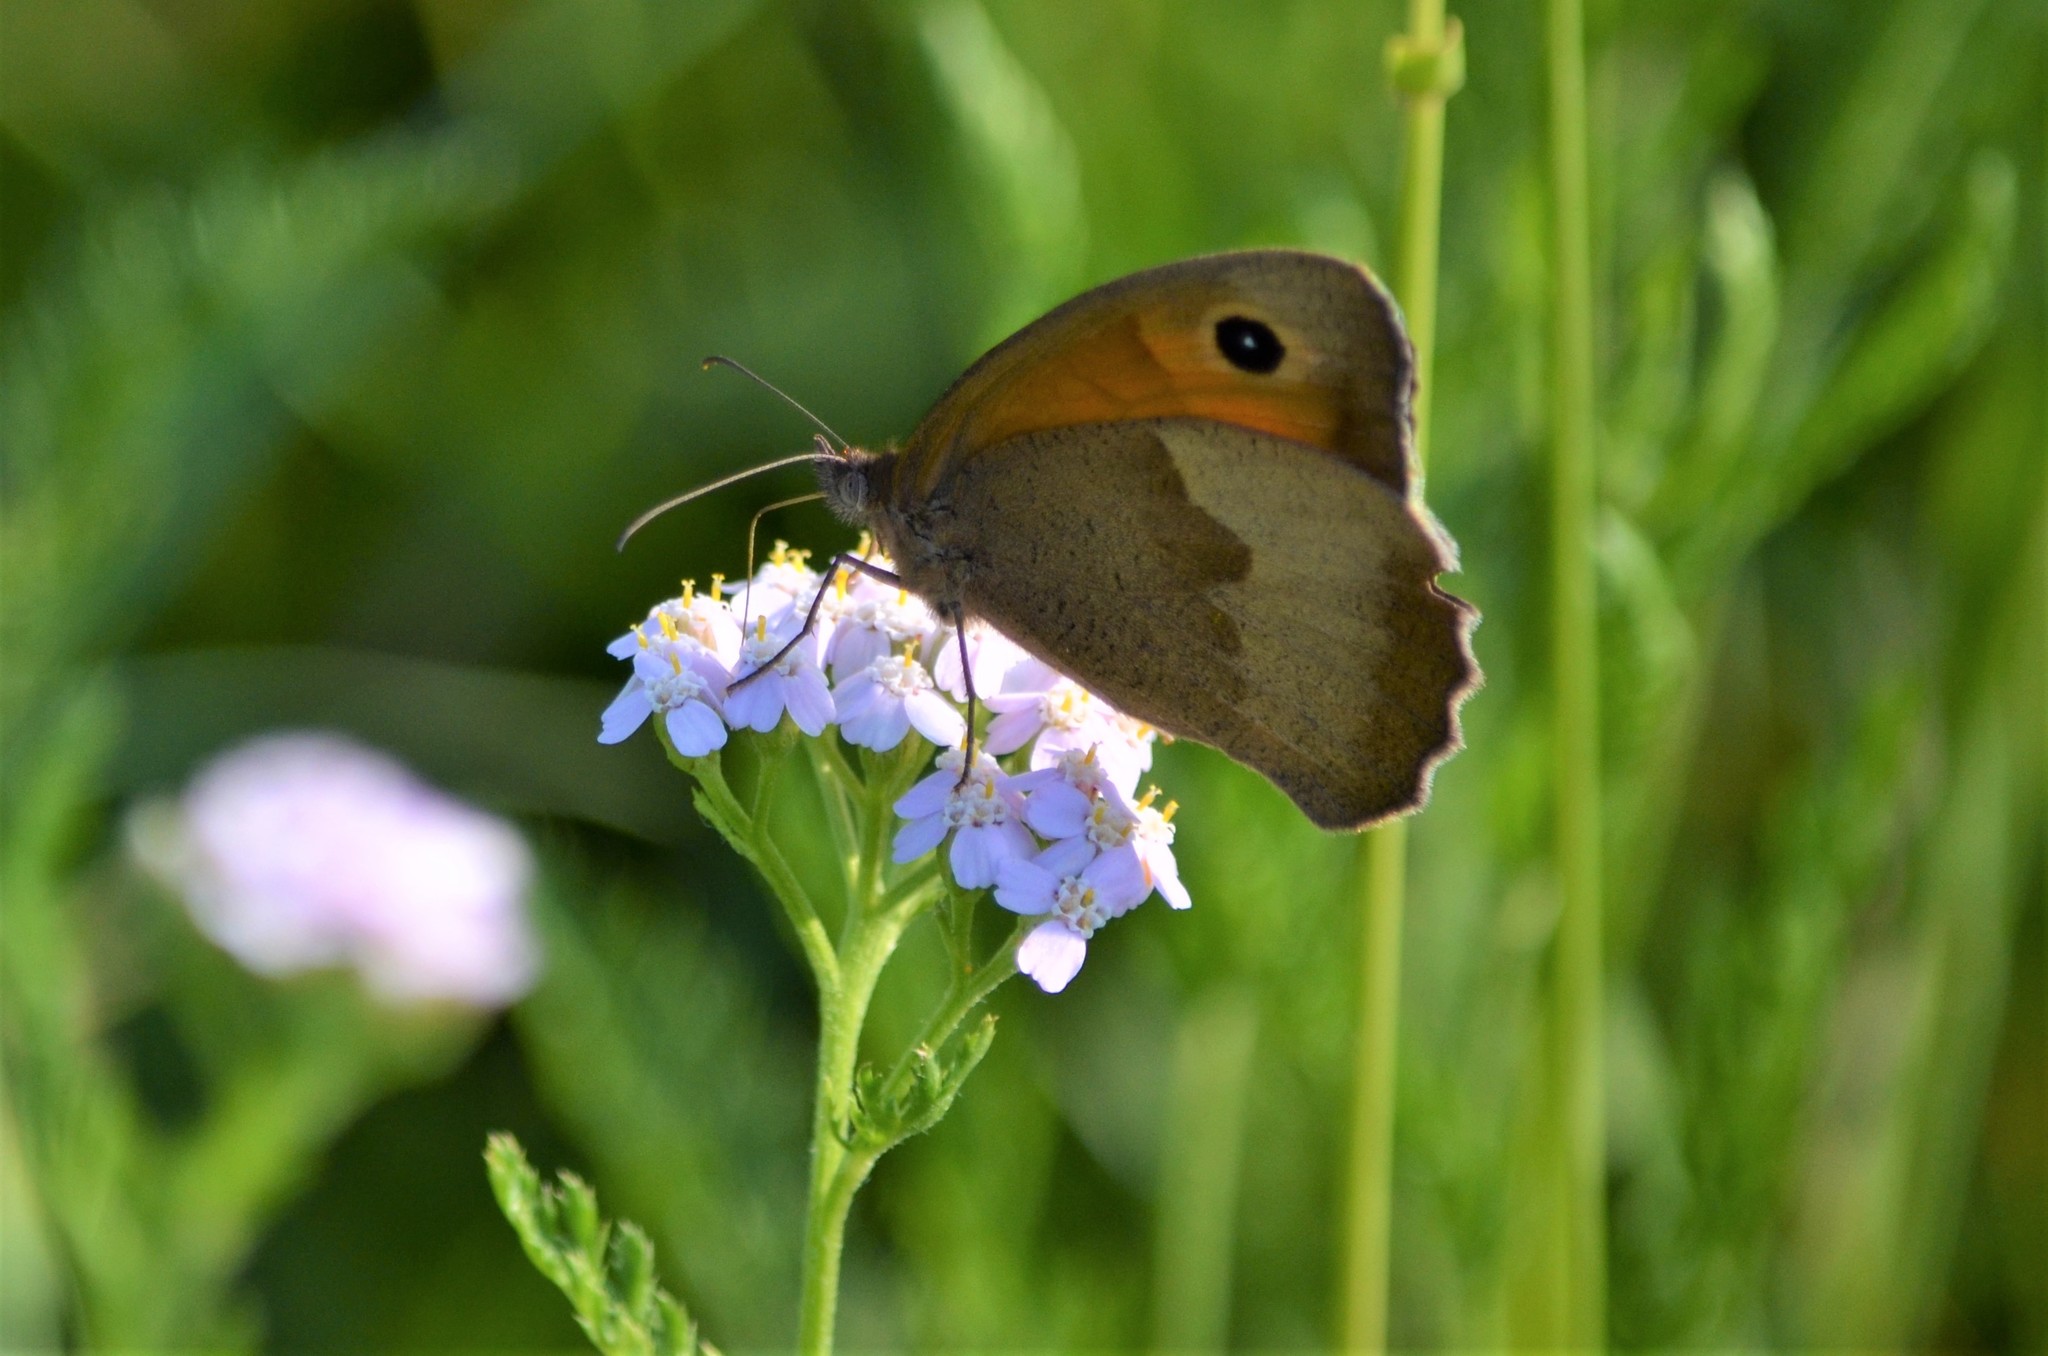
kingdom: Animalia
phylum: Arthropoda
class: Insecta
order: Lepidoptera
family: Nymphalidae
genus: Maniola
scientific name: Maniola jurtina
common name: Meadow brown
